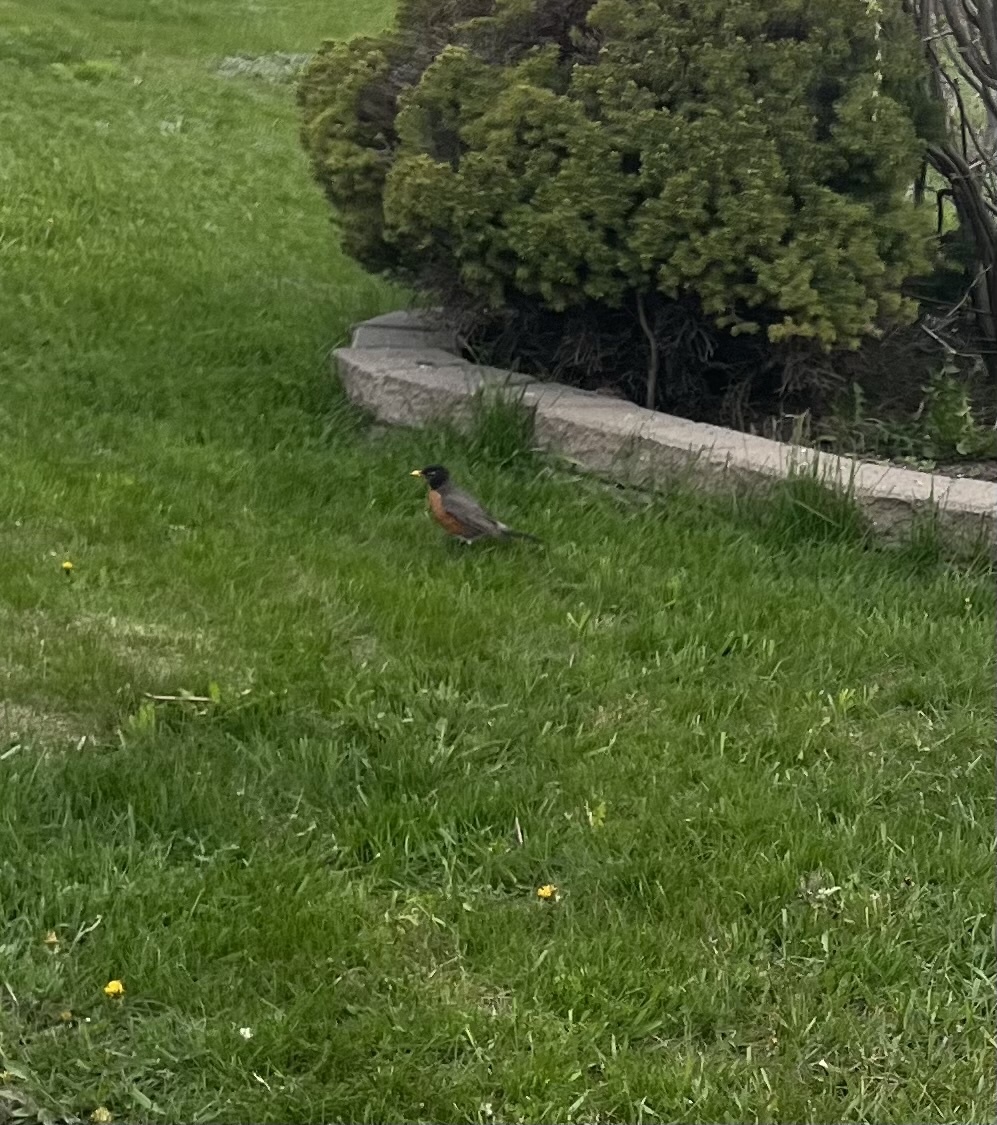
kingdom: Animalia
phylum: Chordata
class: Aves
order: Passeriformes
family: Turdidae
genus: Turdus
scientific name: Turdus migratorius
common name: American robin
